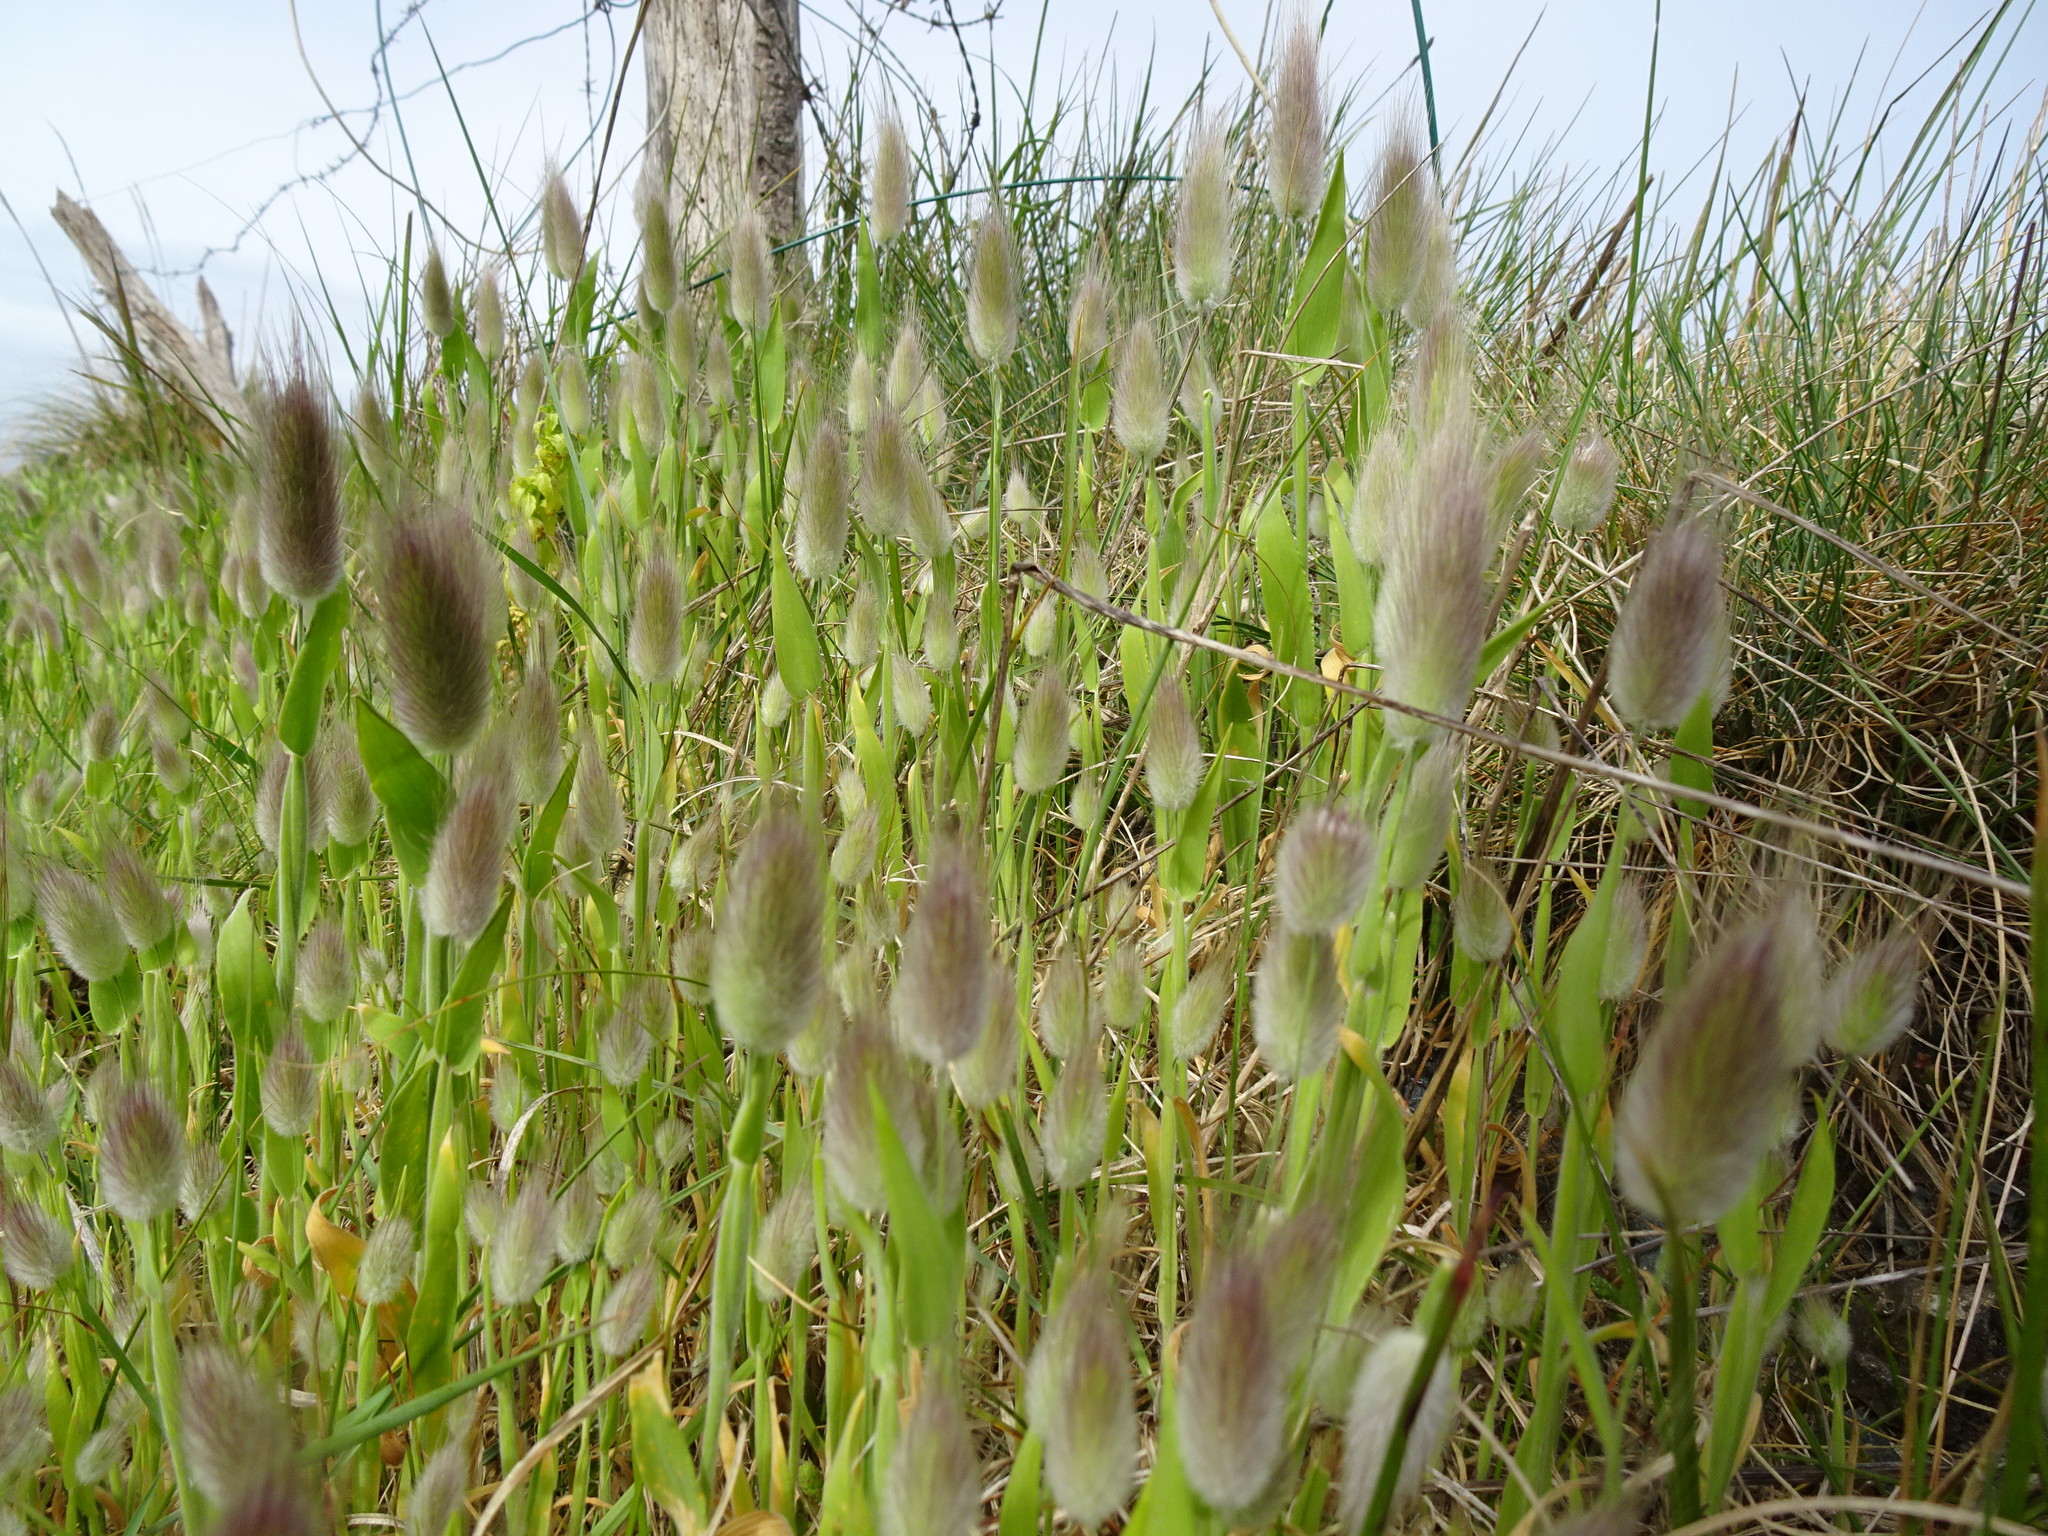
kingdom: Plantae
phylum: Tracheophyta
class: Liliopsida
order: Poales
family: Poaceae
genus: Lagurus
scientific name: Lagurus ovatus
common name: Hare's-tail
